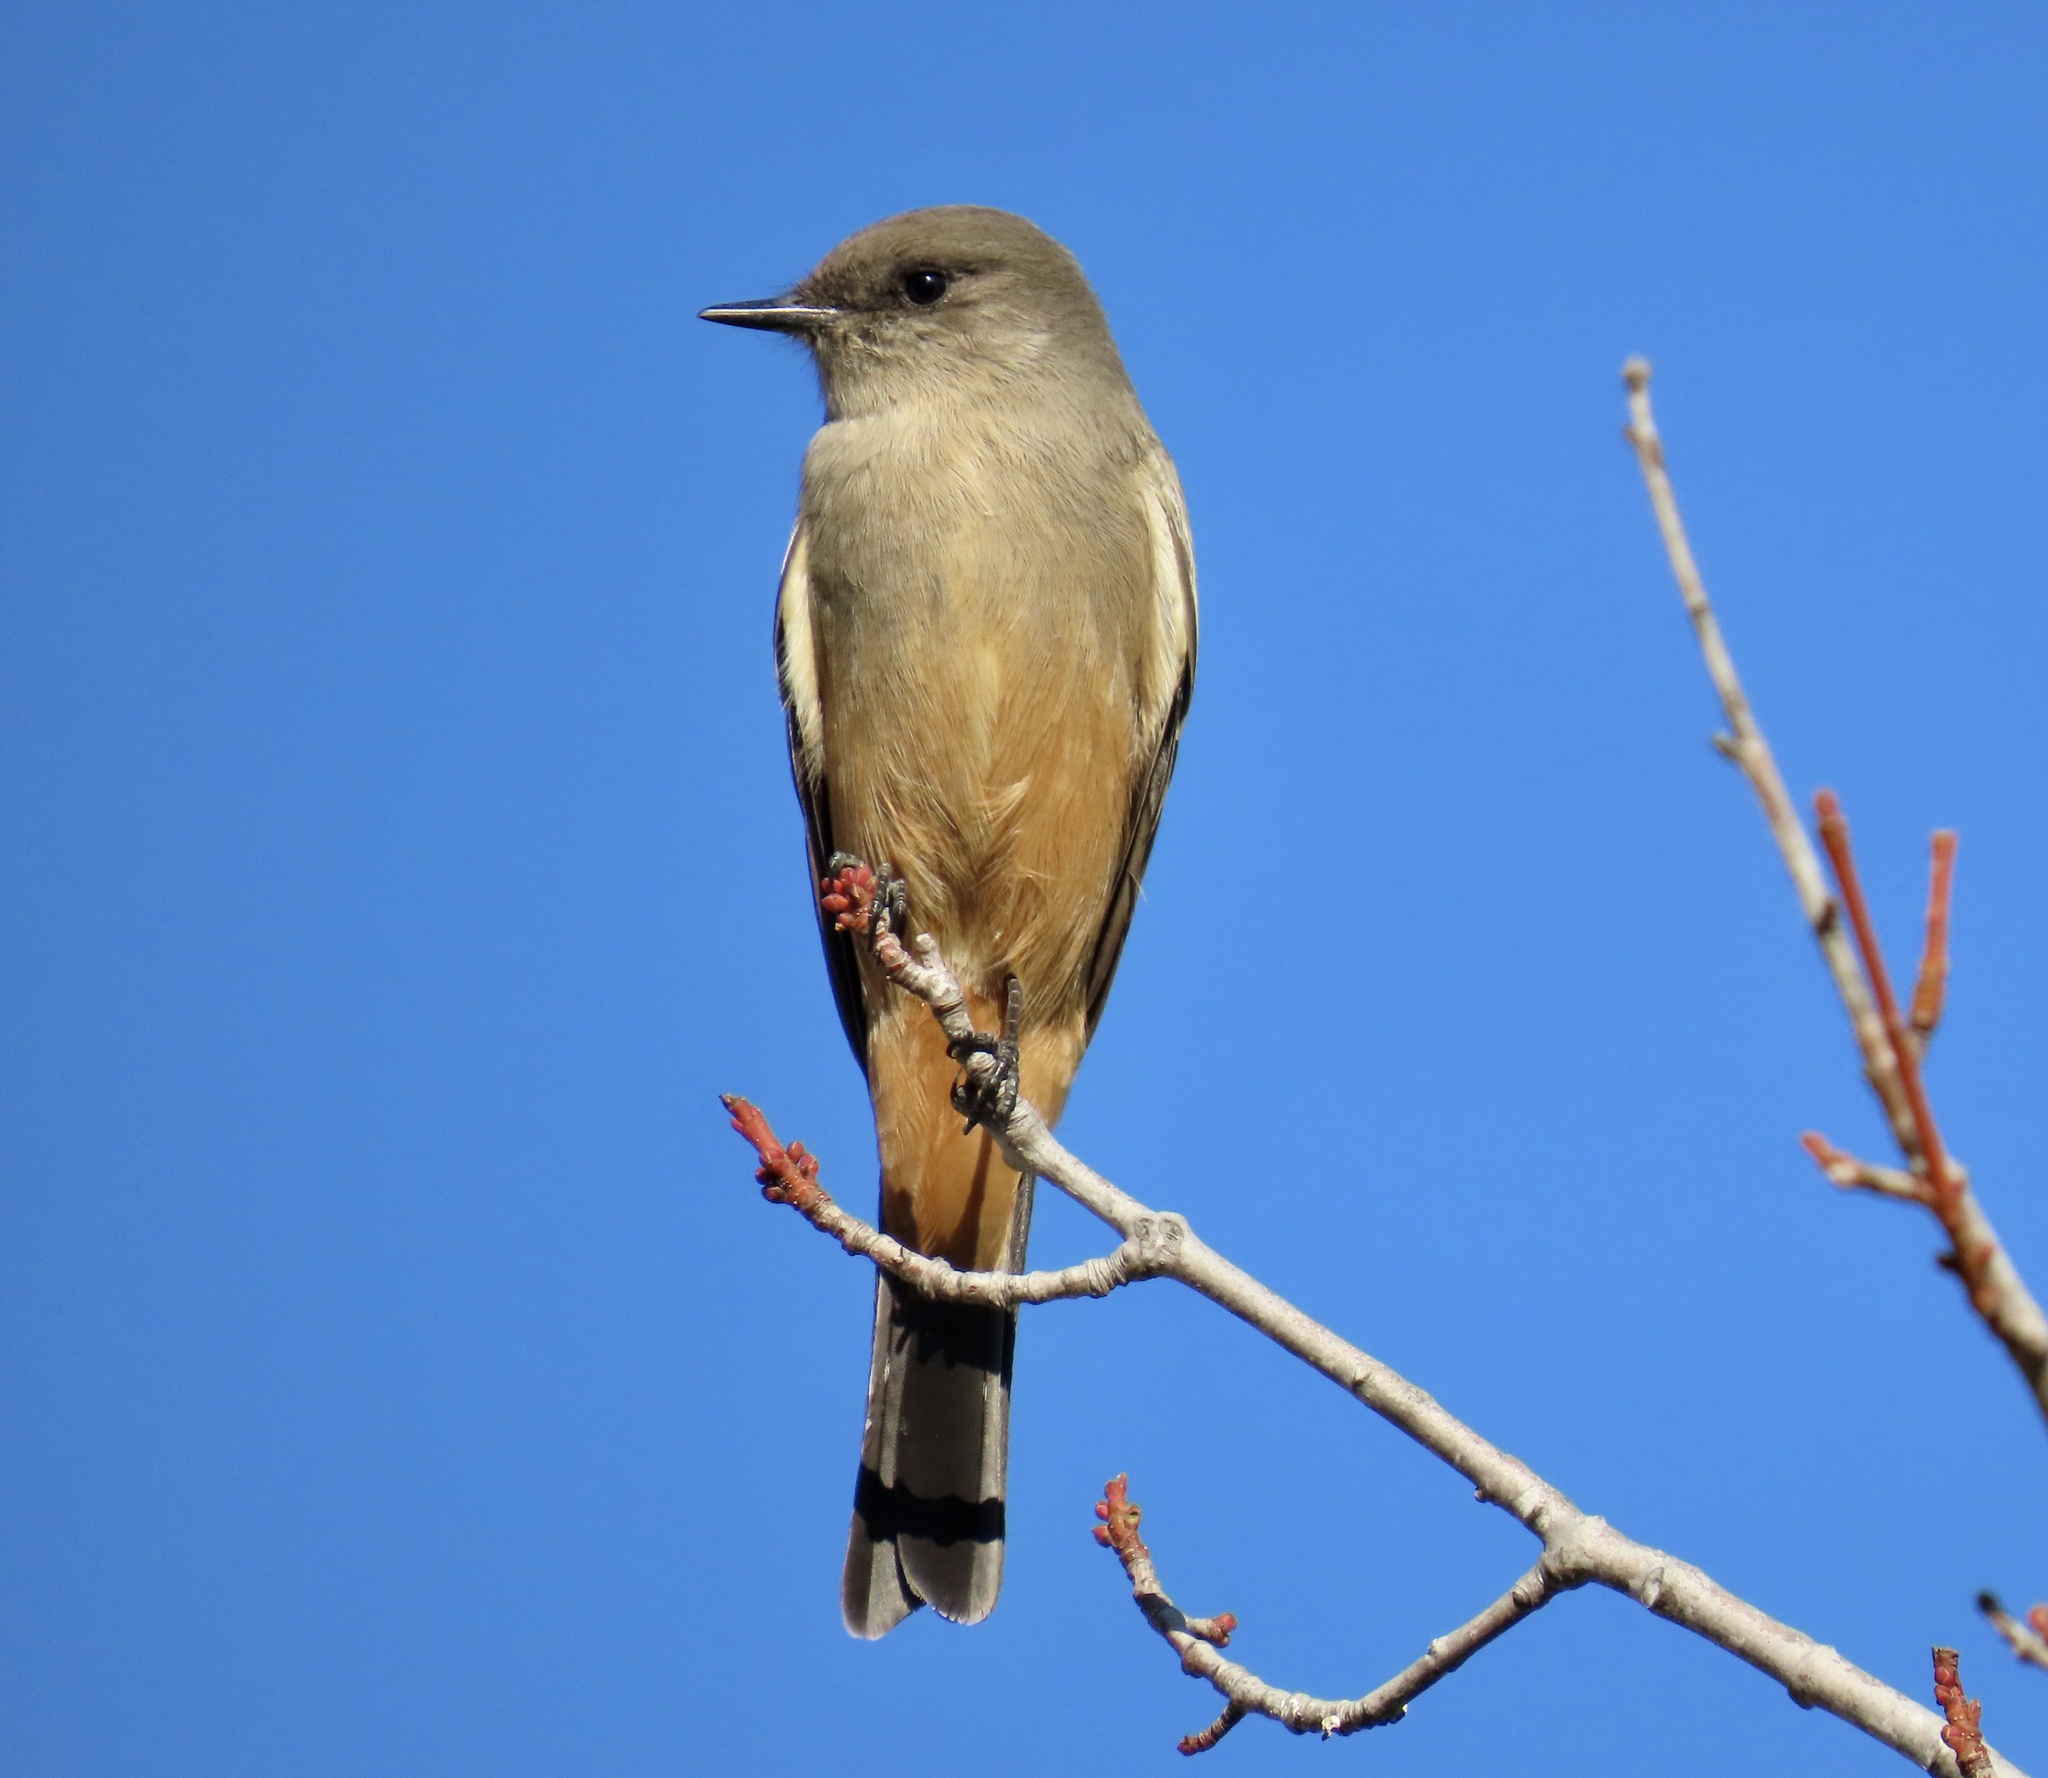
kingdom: Animalia
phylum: Chordata
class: Aves
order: Passeriformes
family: Tyrannidae
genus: Sayornis
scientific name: Sayornis saya
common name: Say's phoebe
